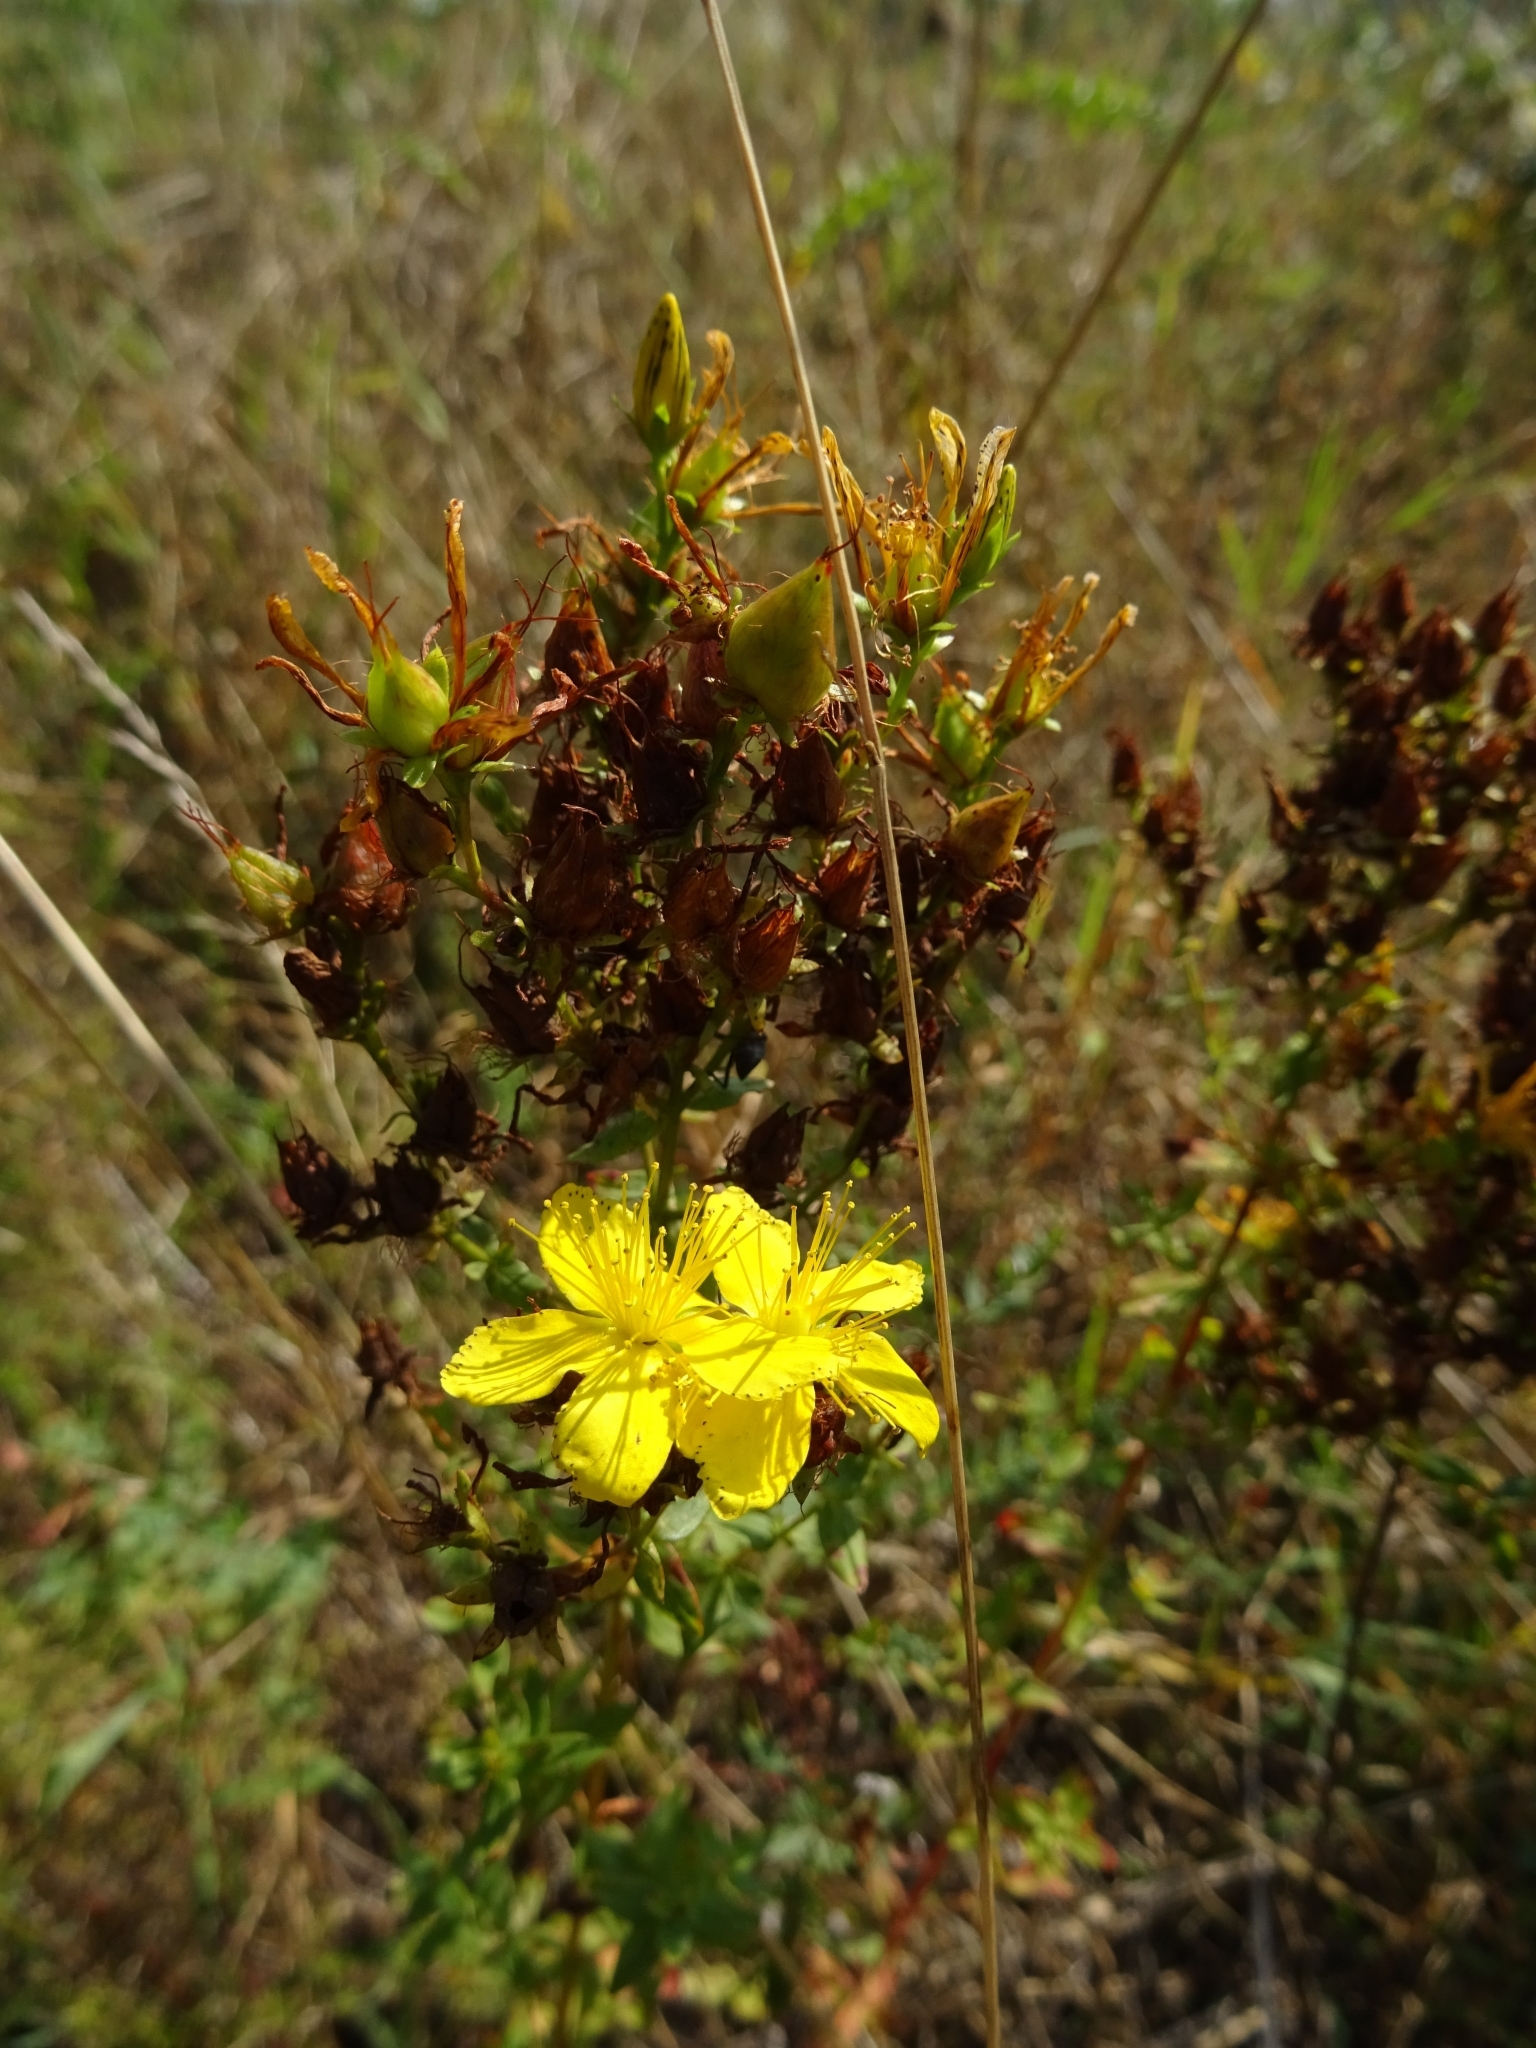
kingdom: Plantae
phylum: Tracheophyta
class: Magnoliopsida
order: Malpighiales
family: Hypericaceae
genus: Hypericum
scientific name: Hypericum perforatum
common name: Common st. johnswort
